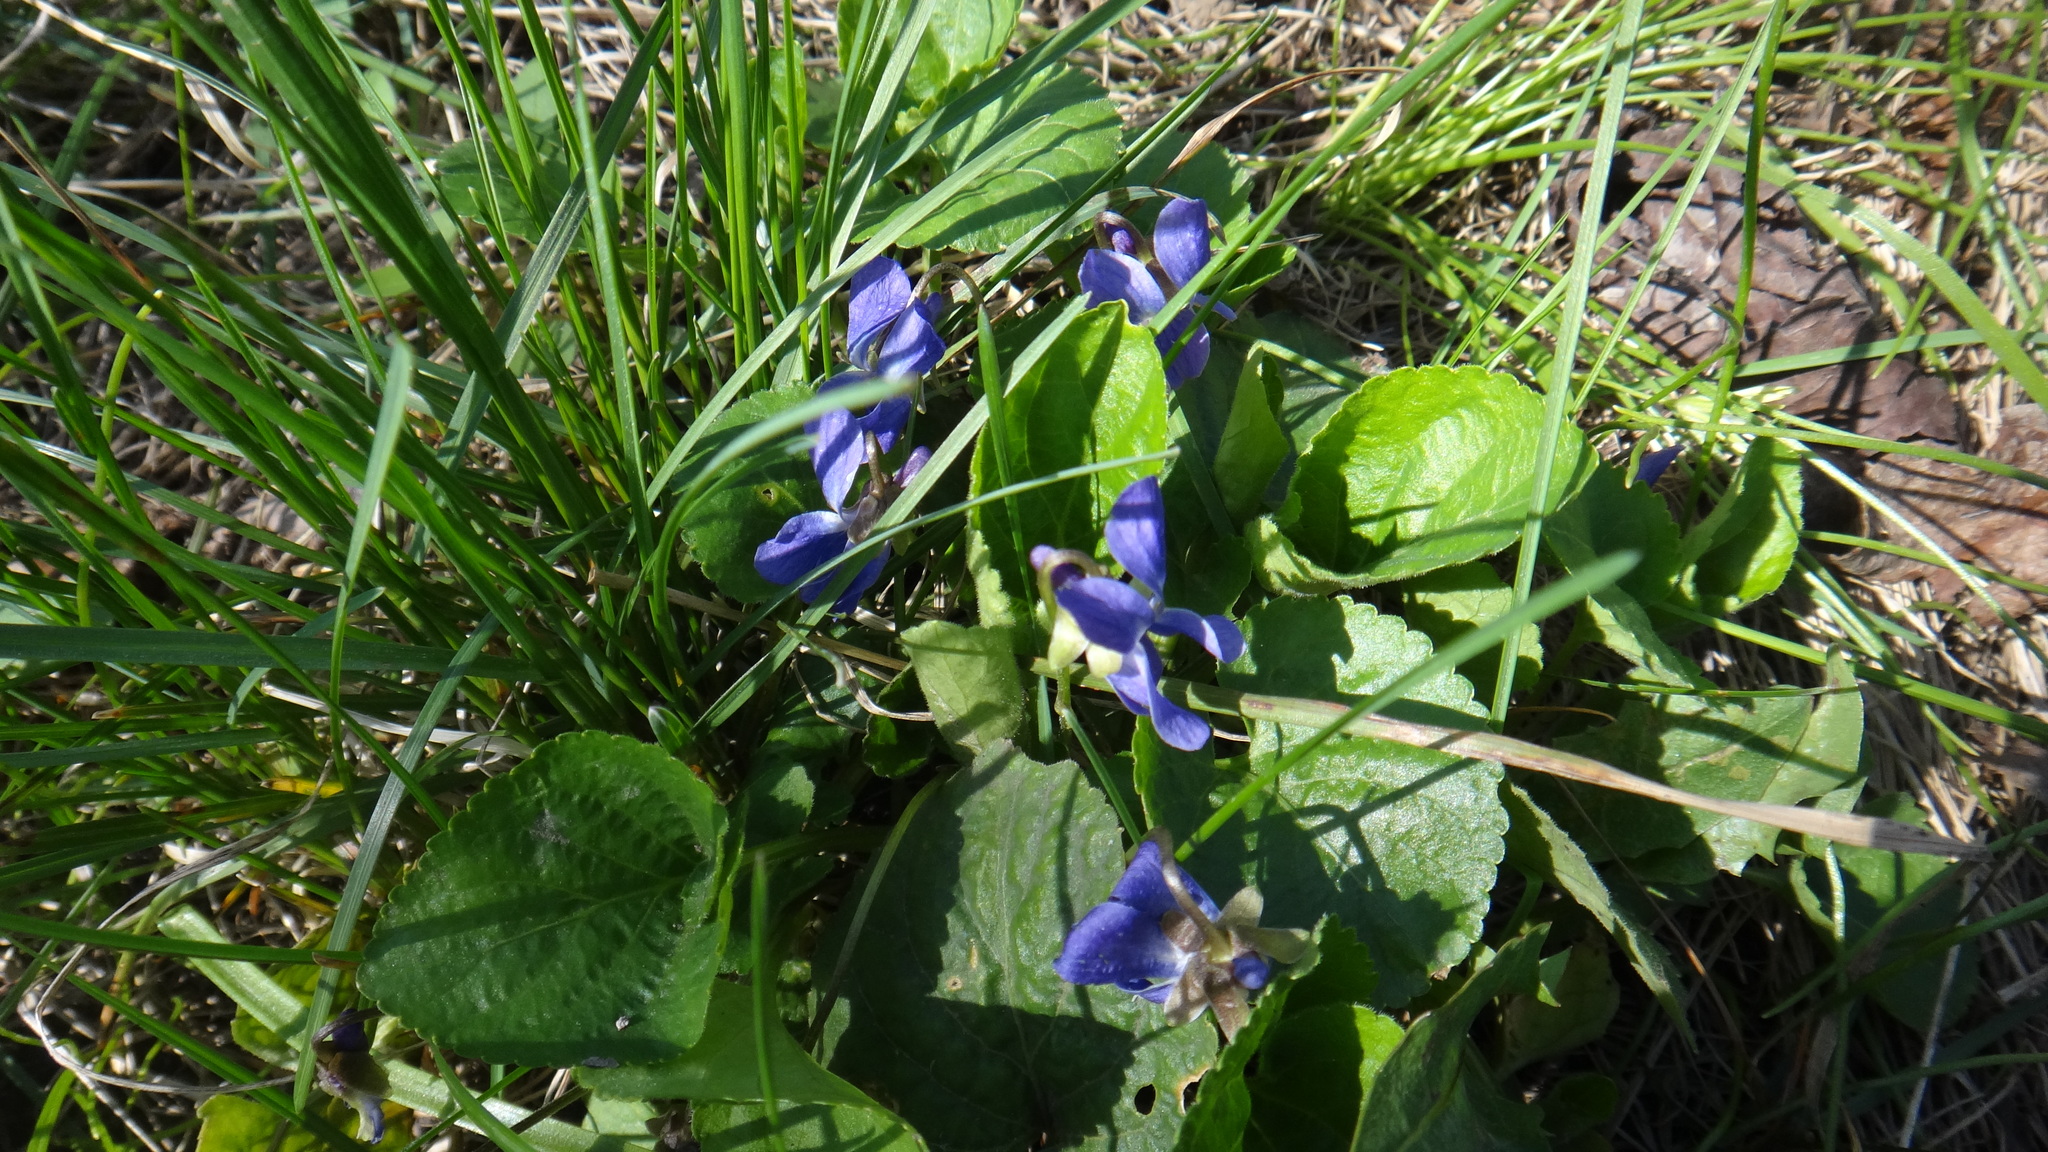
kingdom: Plantae
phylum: Tracheophyta
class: Magnoliopsida
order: Malpighiales
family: Violaceae
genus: Viola
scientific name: Viola odorata
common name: Sweet violet
